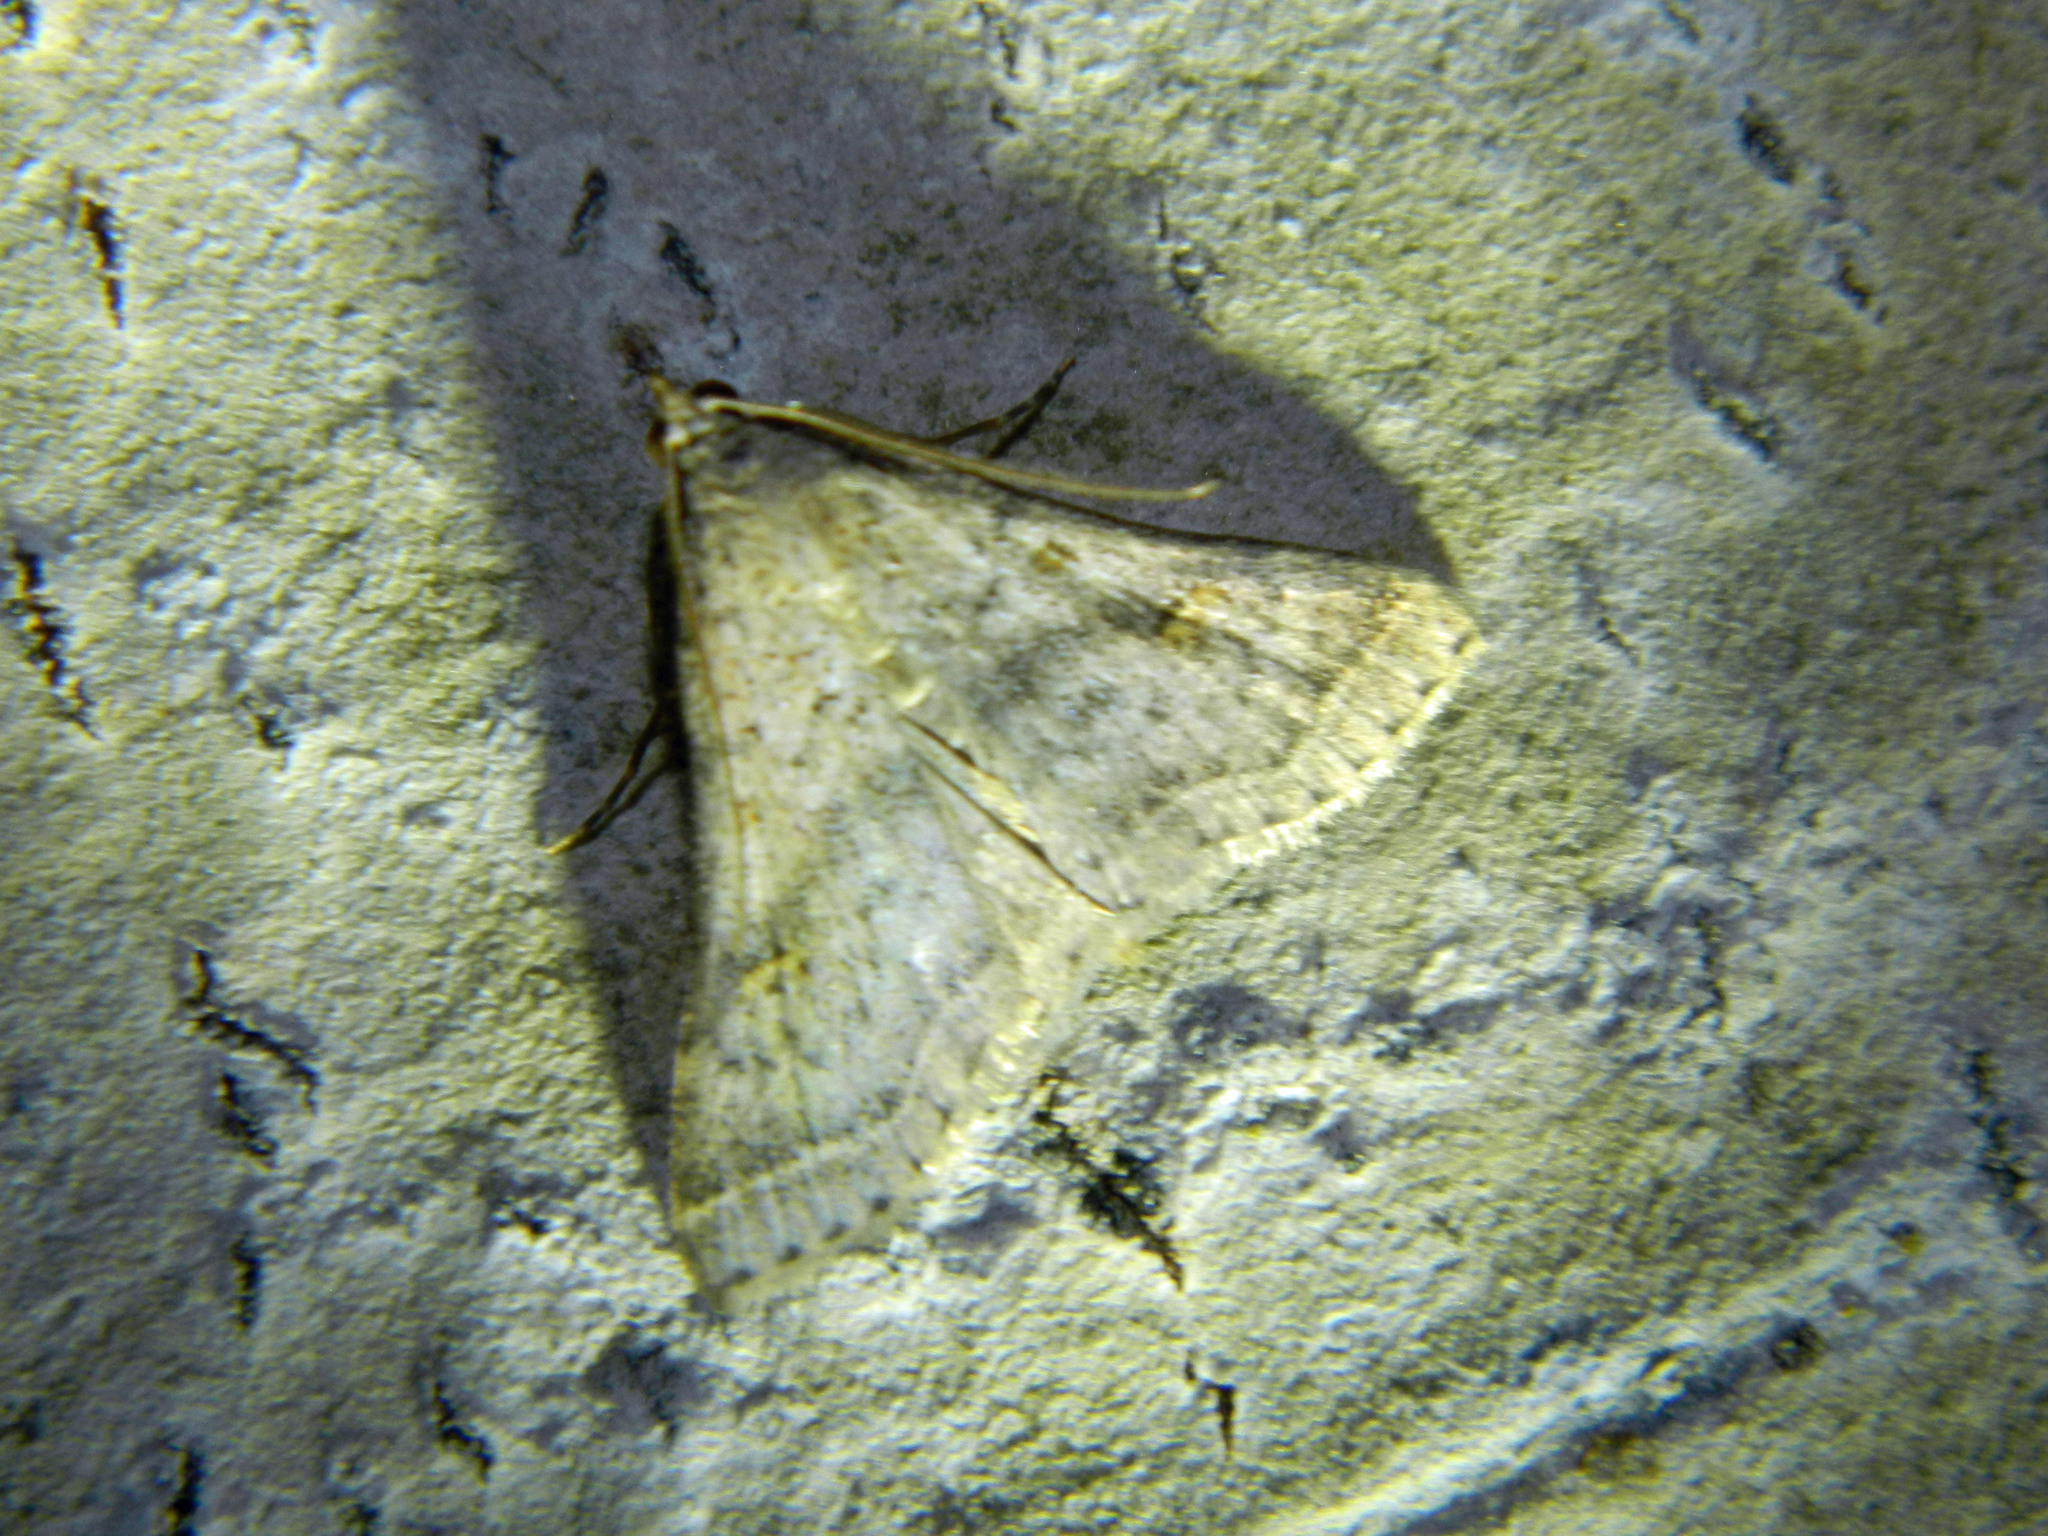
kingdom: Animalia
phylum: Arthropoda
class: Insecta
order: Lepidoptera
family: Erebidae
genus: Bleptina
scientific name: Bleptina caradrinalis
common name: Bent-winged owlet
